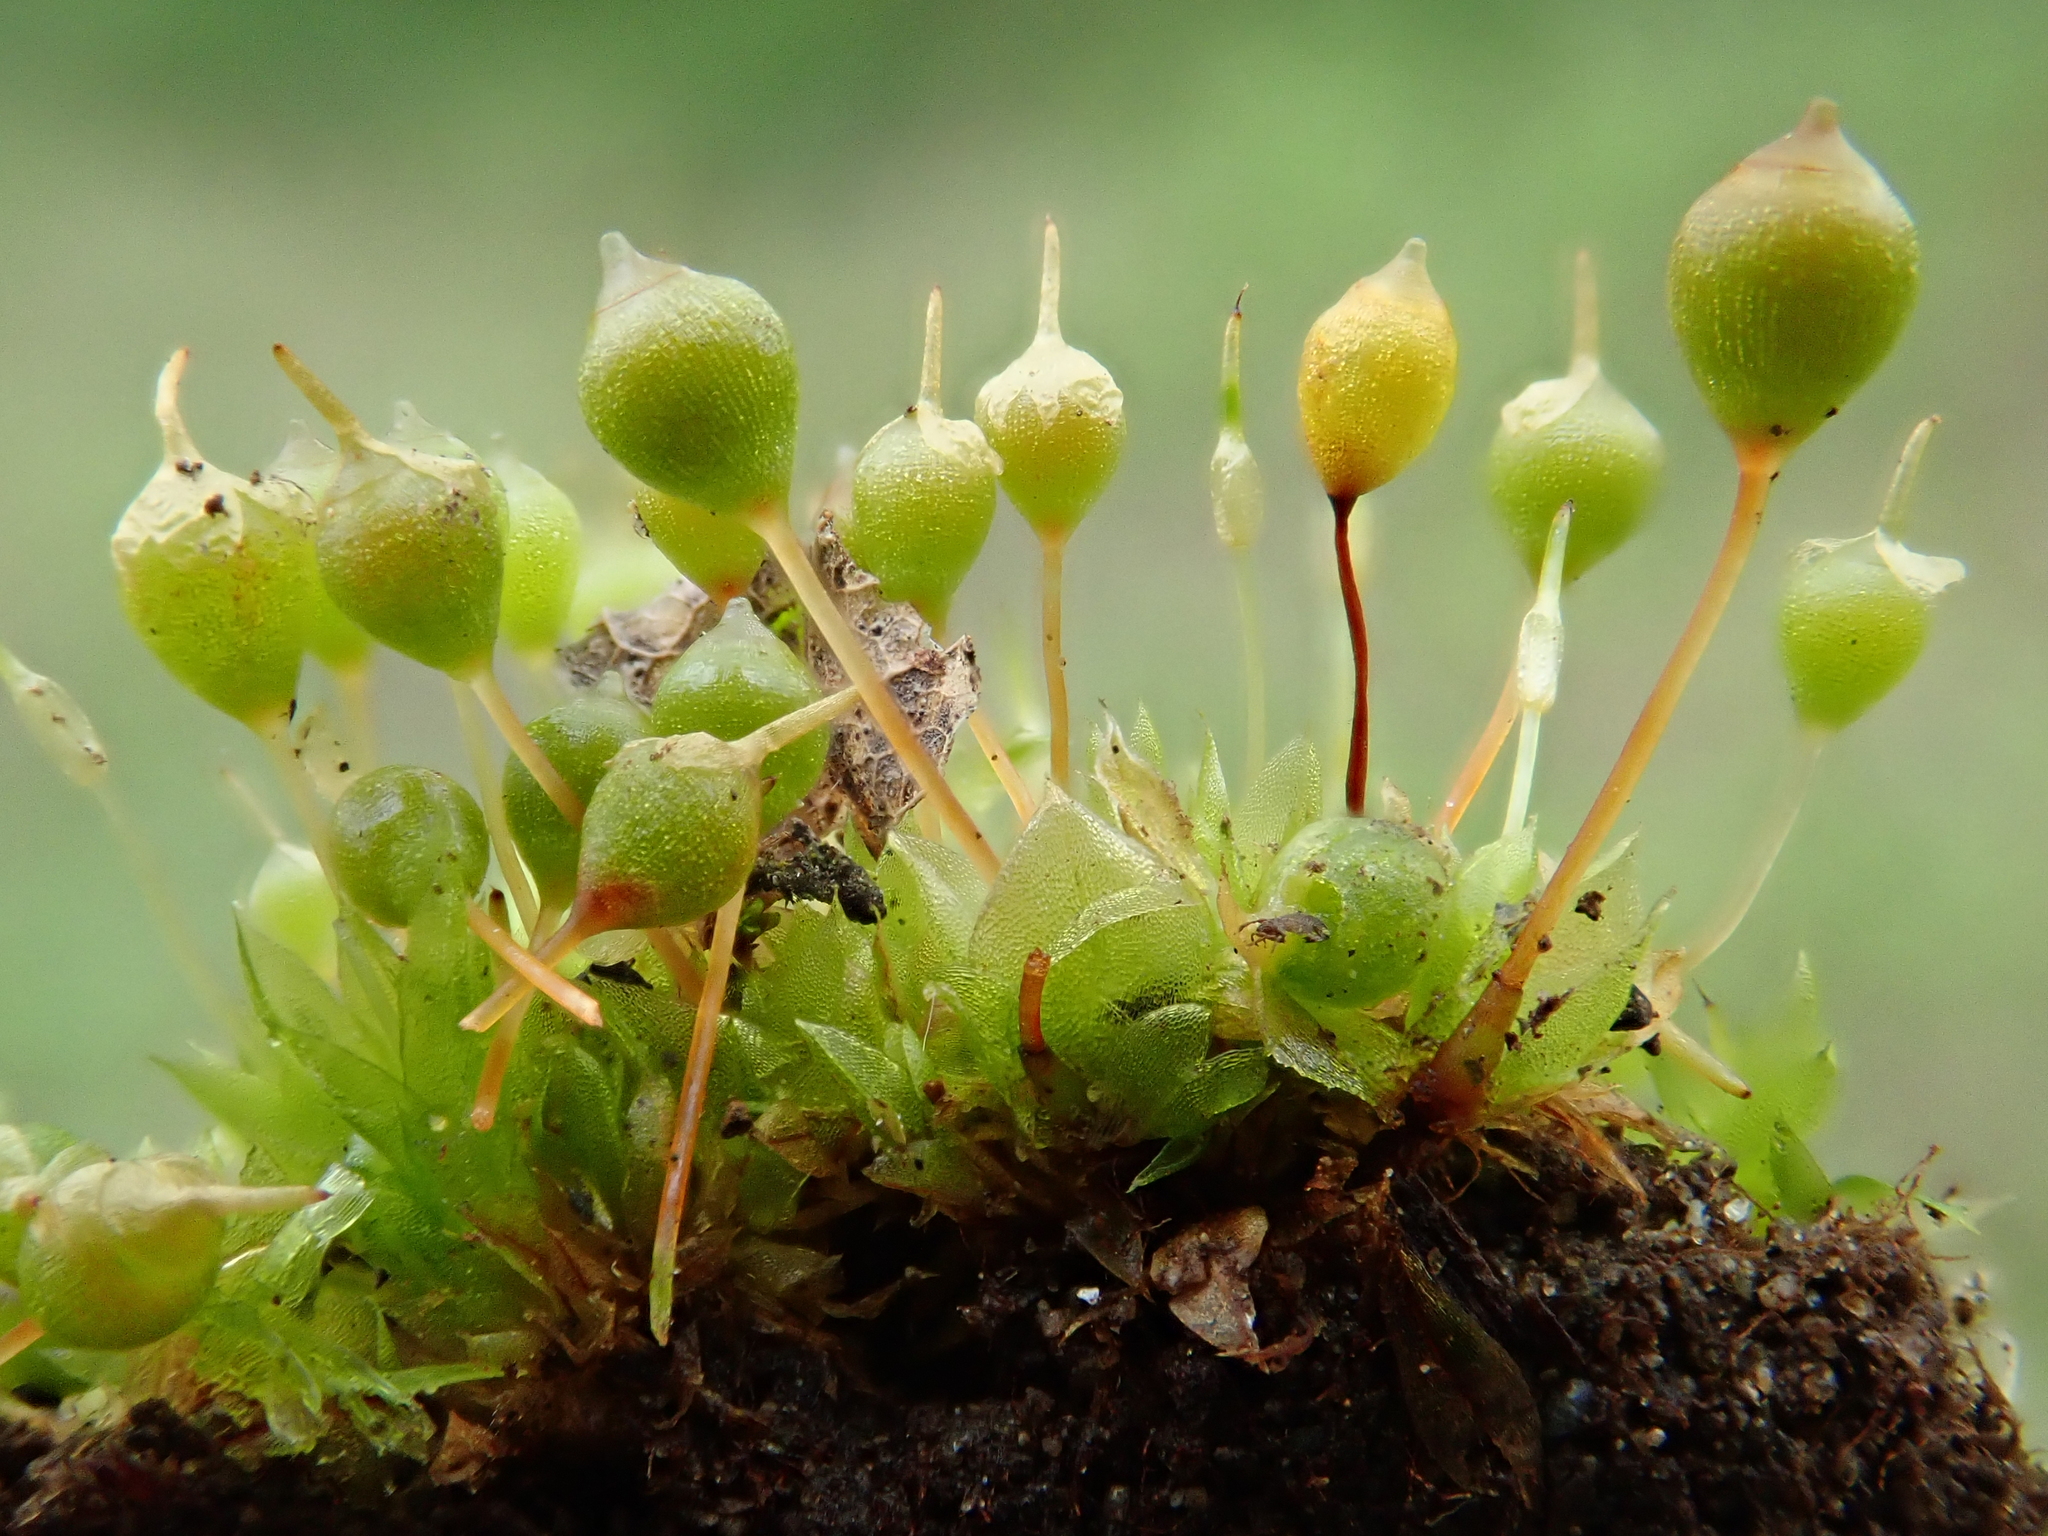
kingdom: Plantae
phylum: Bryophyta
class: Bryopsida
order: Funariales
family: Funariaceae
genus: Physcomitrium
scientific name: Physcomitrium pyriforme
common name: Common bladder-moss
